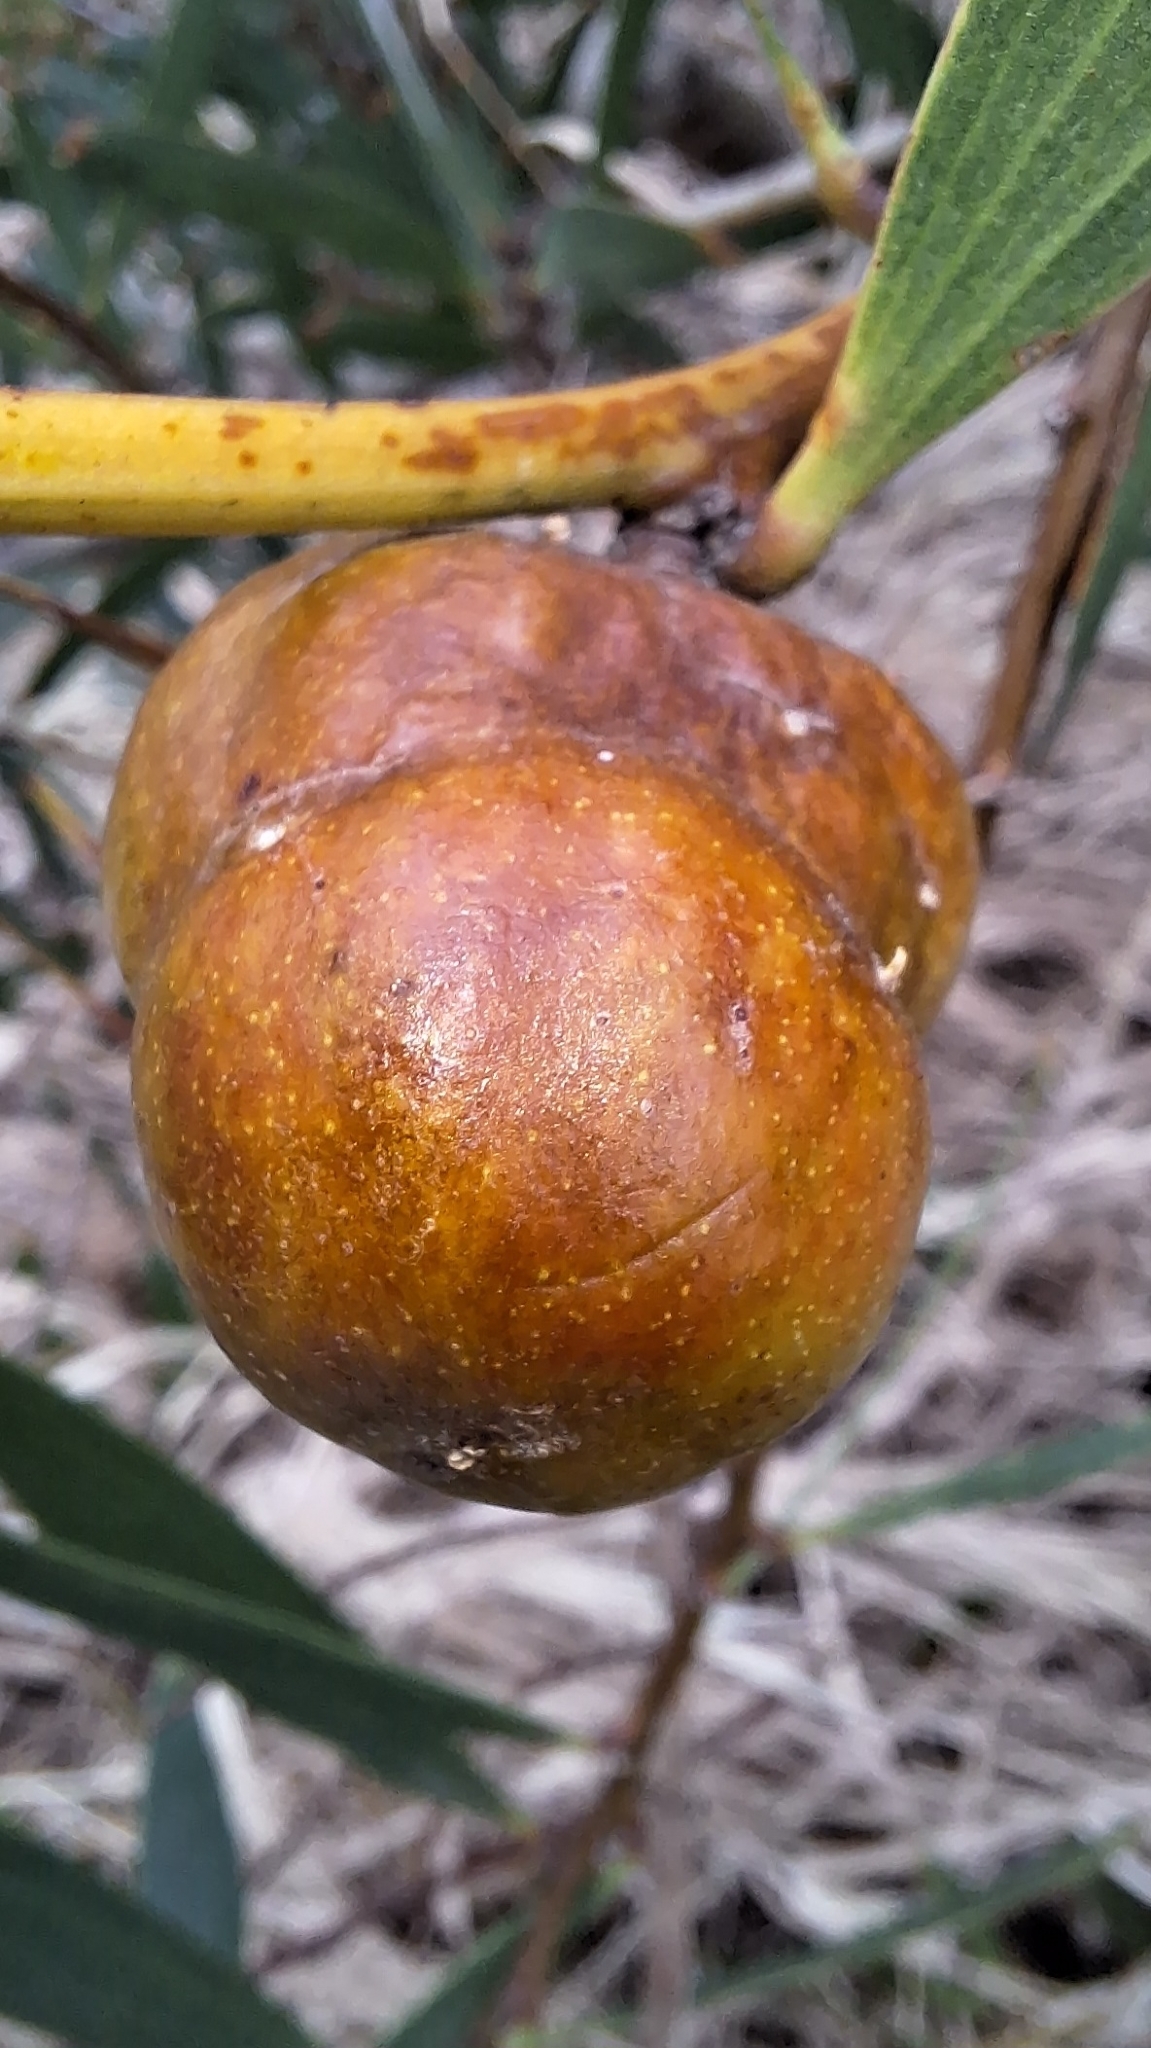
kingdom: Animalia
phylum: Arthropoda
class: Insecta
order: Hymenoptera
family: Pteromalidae
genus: Trichilogaster
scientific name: Trichilogaster acaciaelongifoliae
